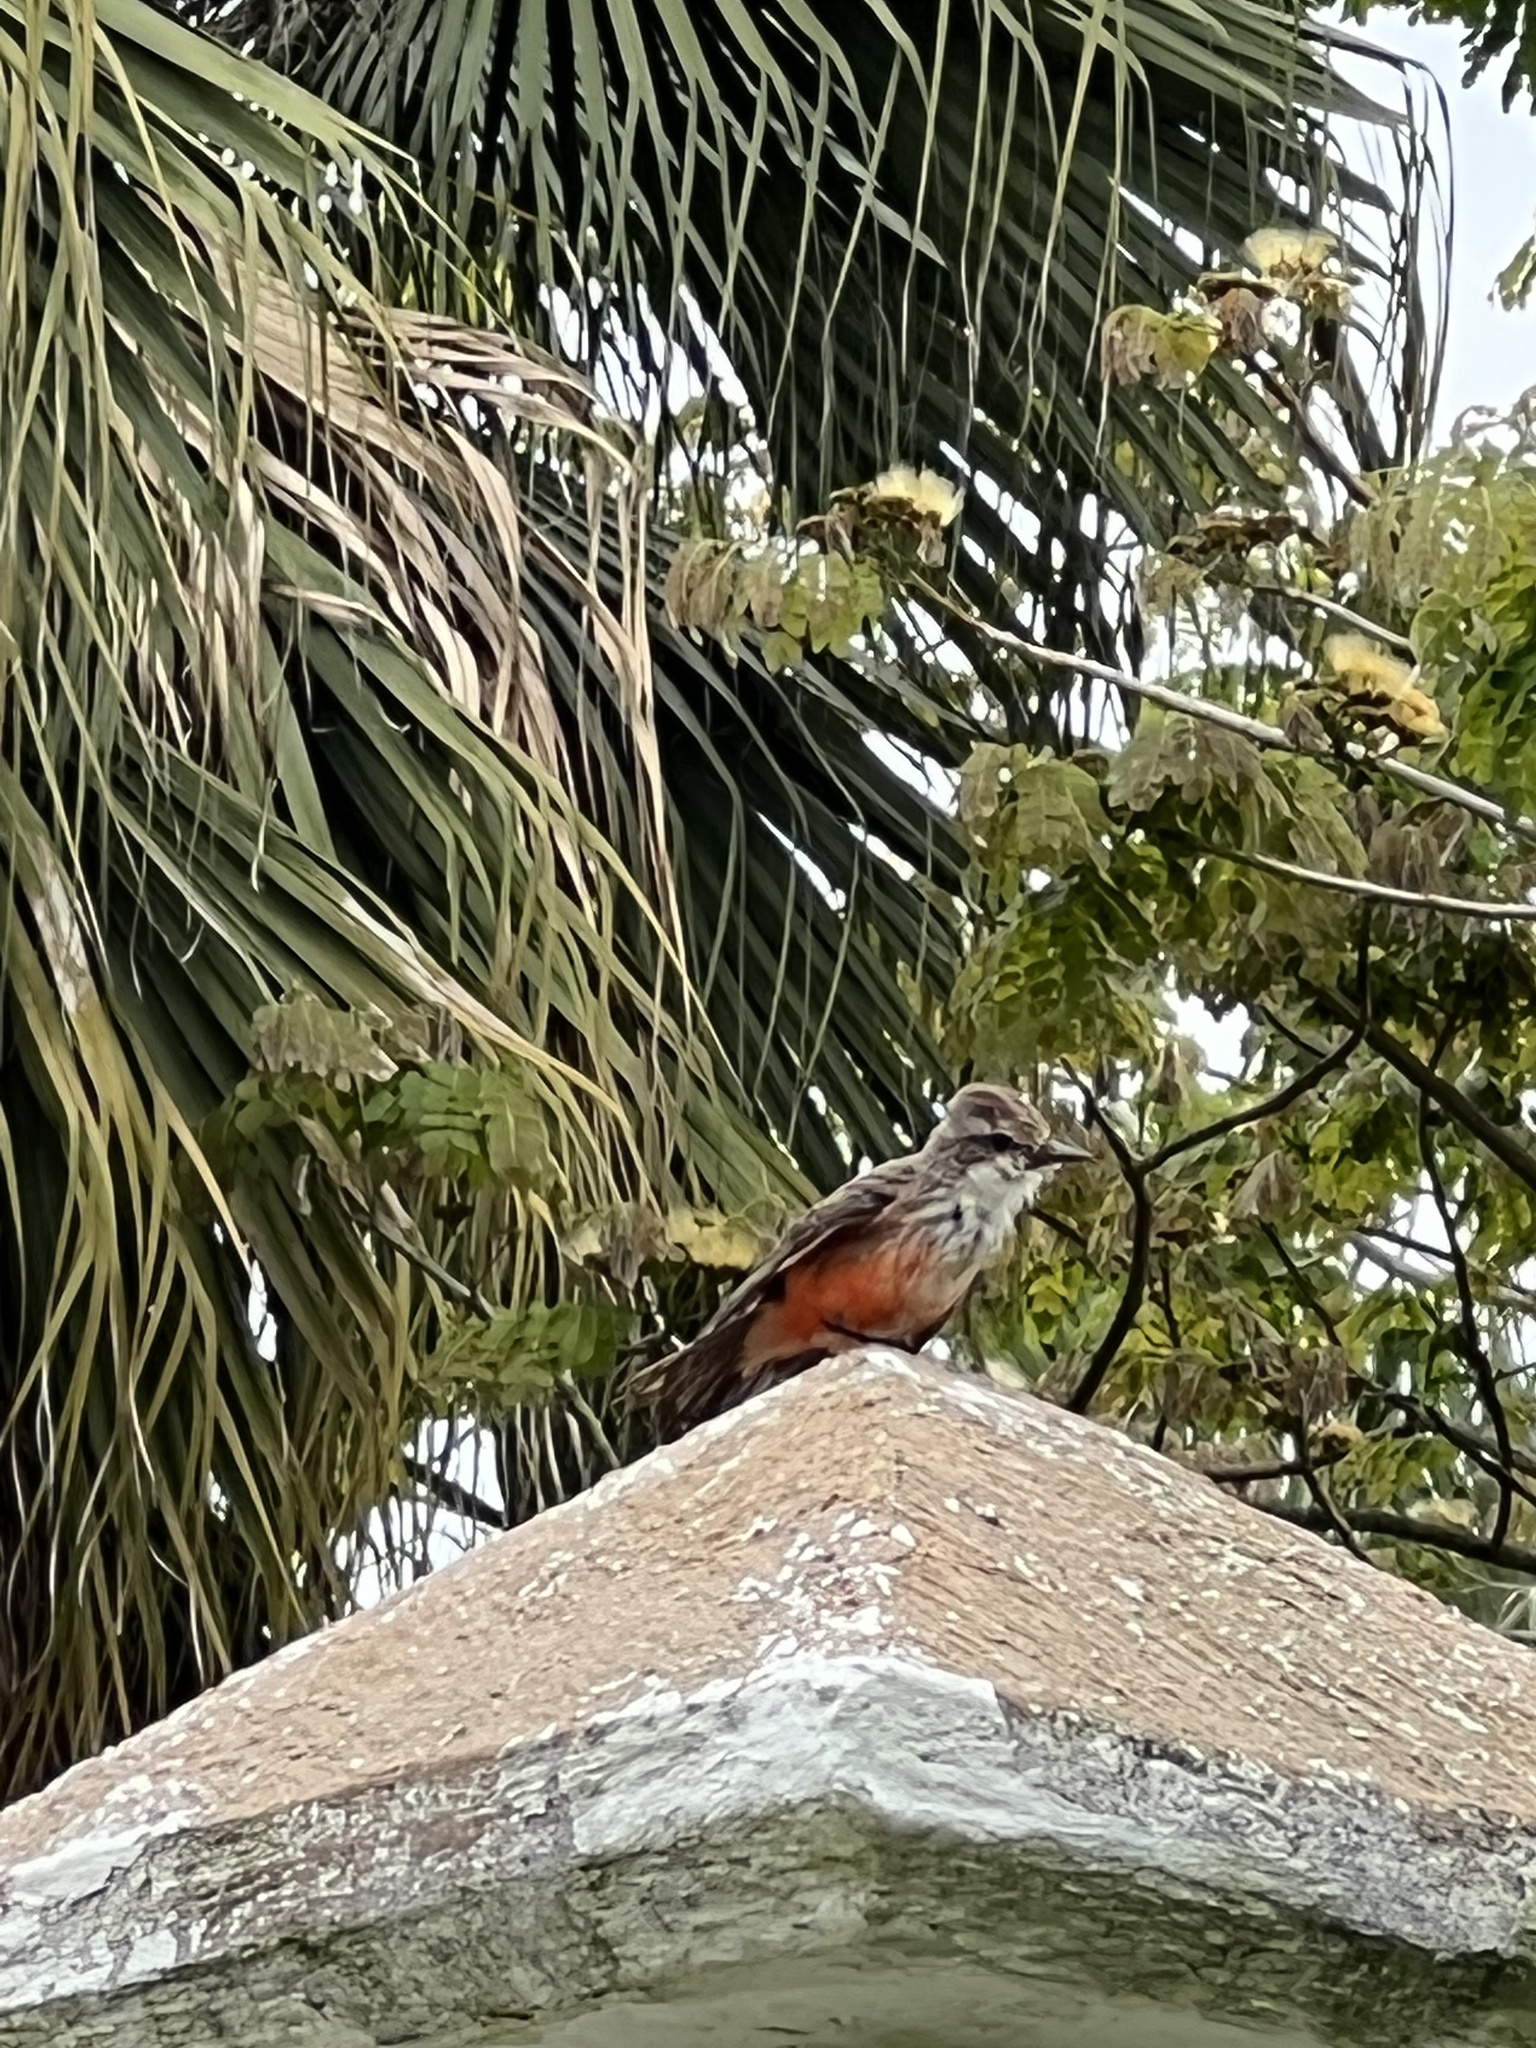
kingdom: Animalia
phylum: Chordata
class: Aves
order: Passeriformes
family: Tyrannidae
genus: Pyrocephalus
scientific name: Pyrocephalus rubinus
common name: Vermilion flycatcher
